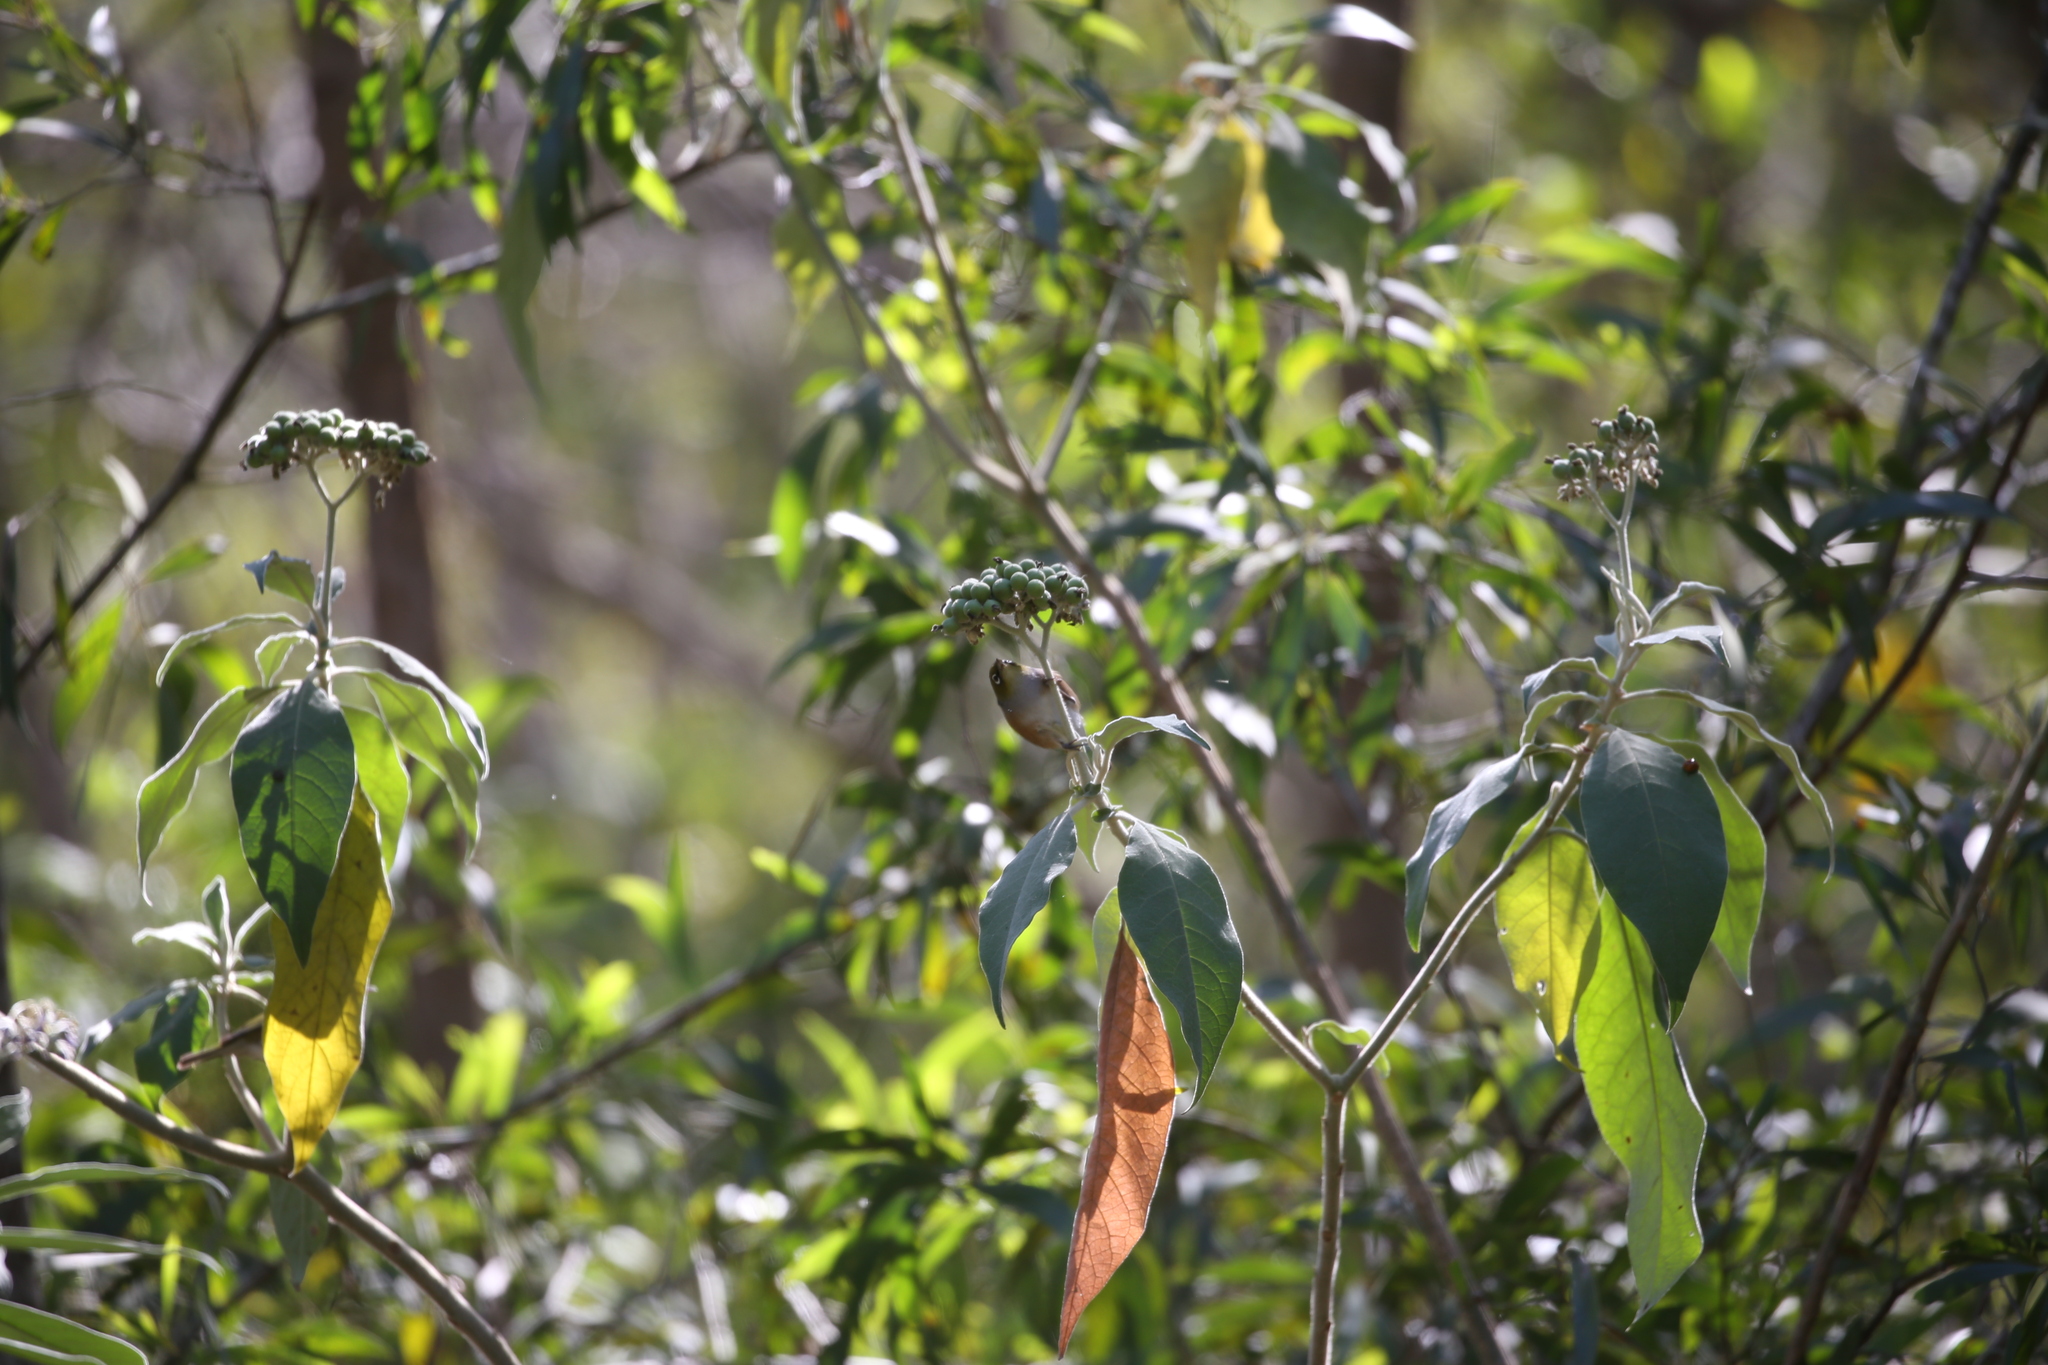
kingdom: Animalia
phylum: Chordata
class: Aves
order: Passeriformes
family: Zosteropidae
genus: Zosterops
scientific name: Zosterops lateralis
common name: Silvereye
